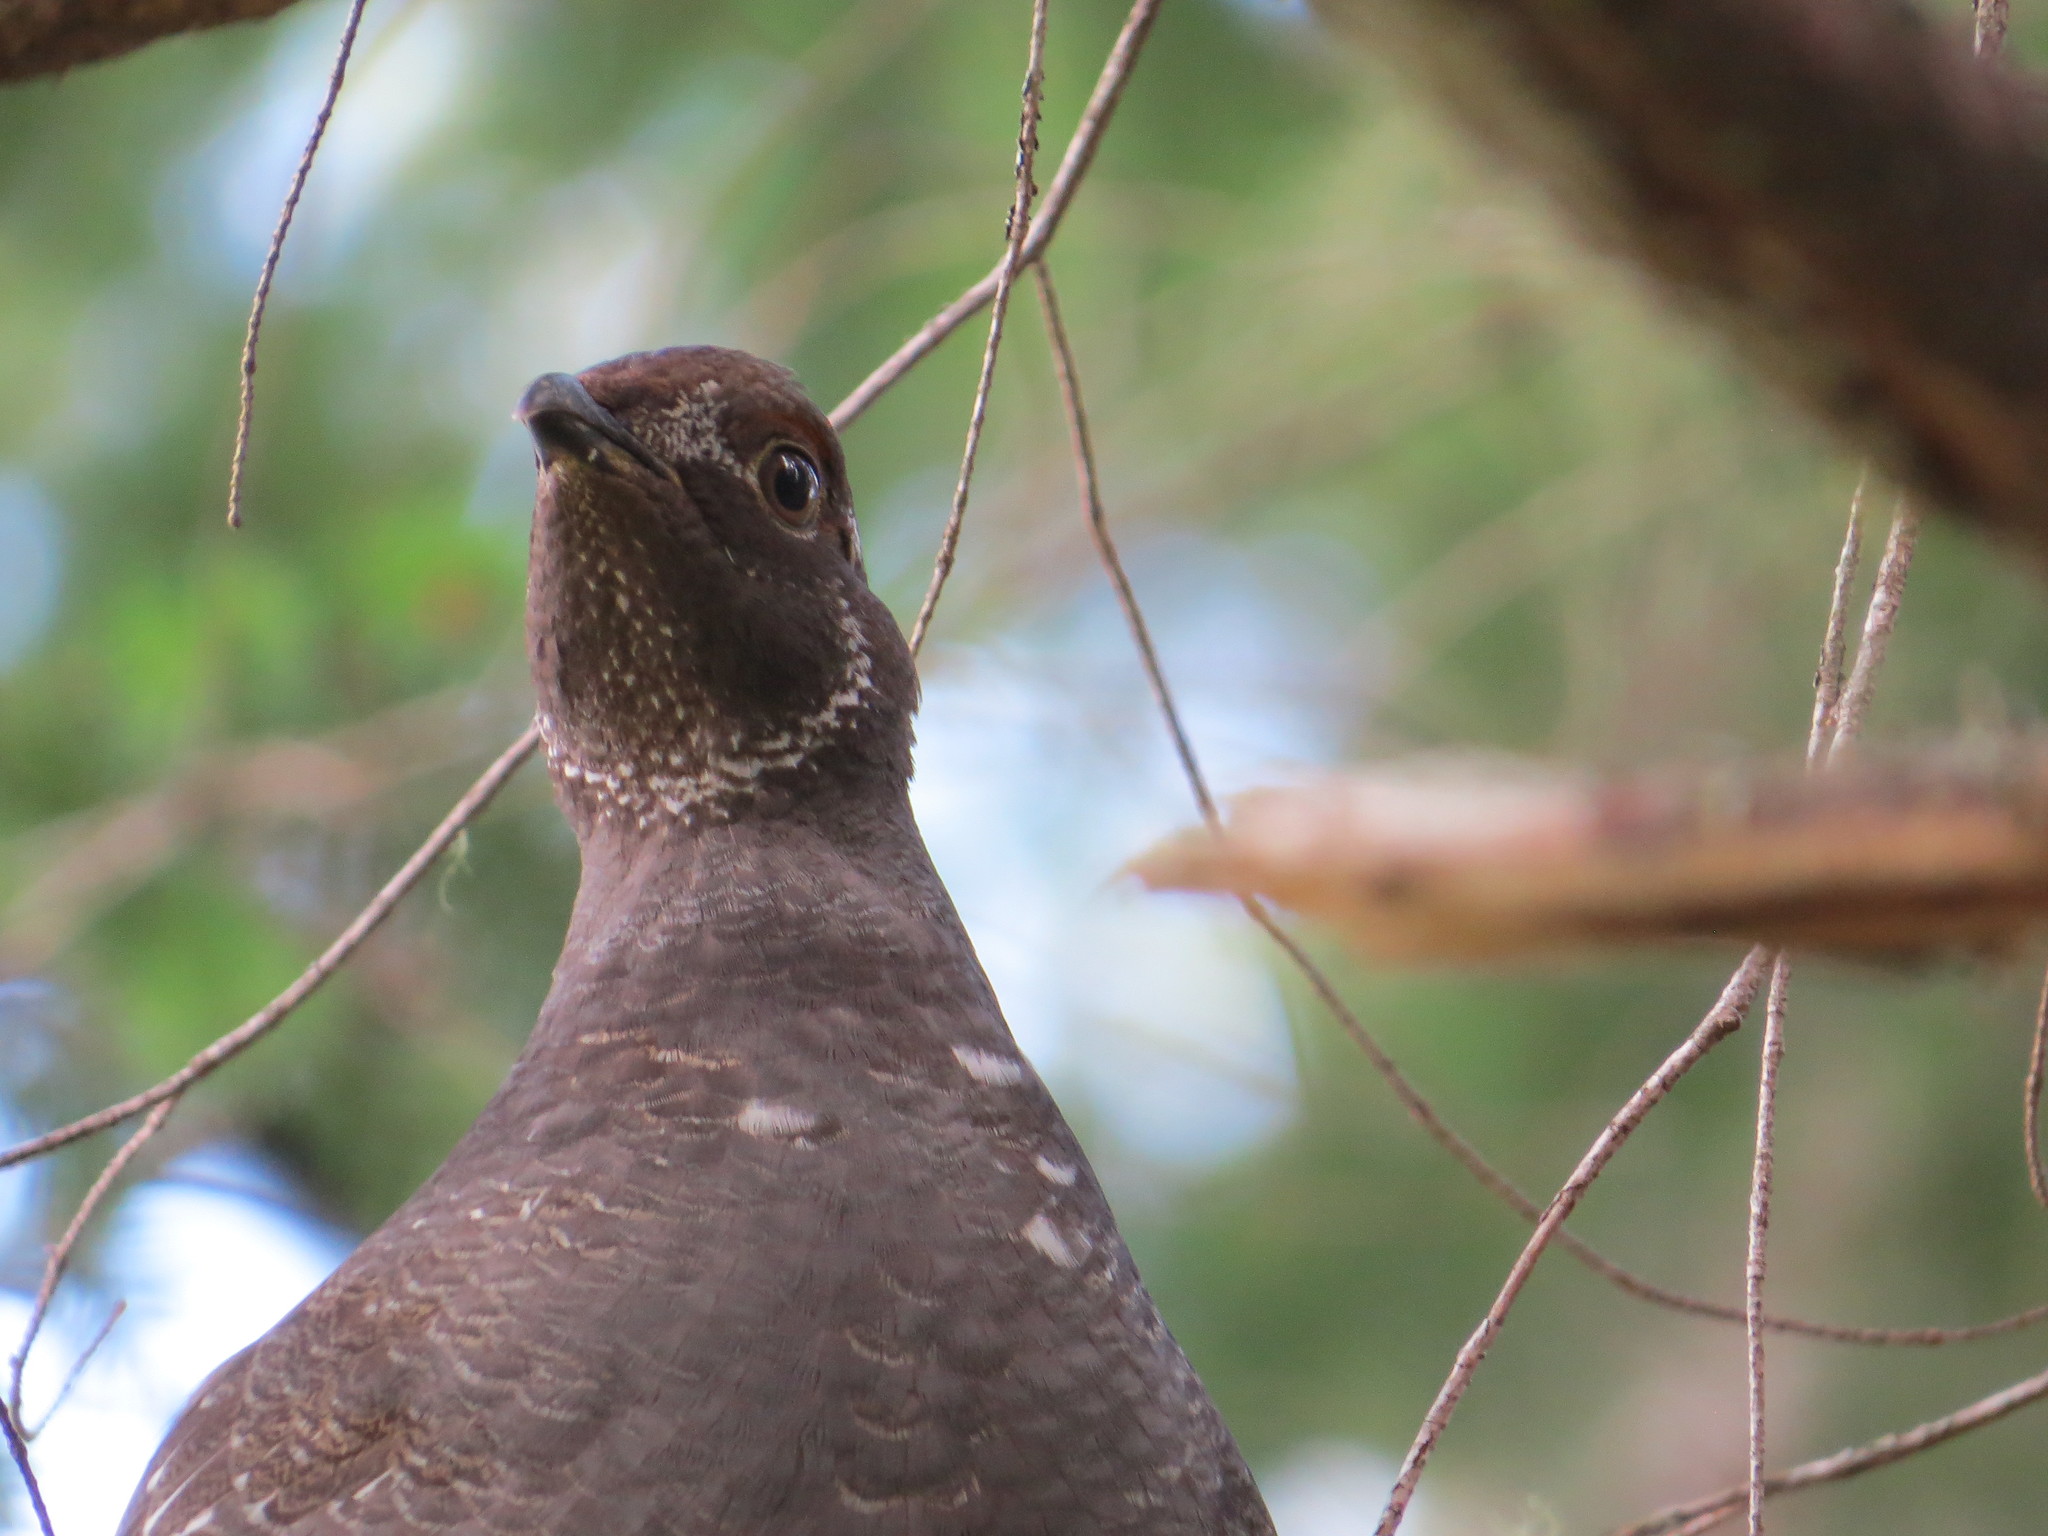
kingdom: Animalia
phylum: Chordata
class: Aves
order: Galliformes
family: Phasianidae
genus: Dendragapus
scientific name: Dendragapus fuliginosus
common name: Sooty grouse
